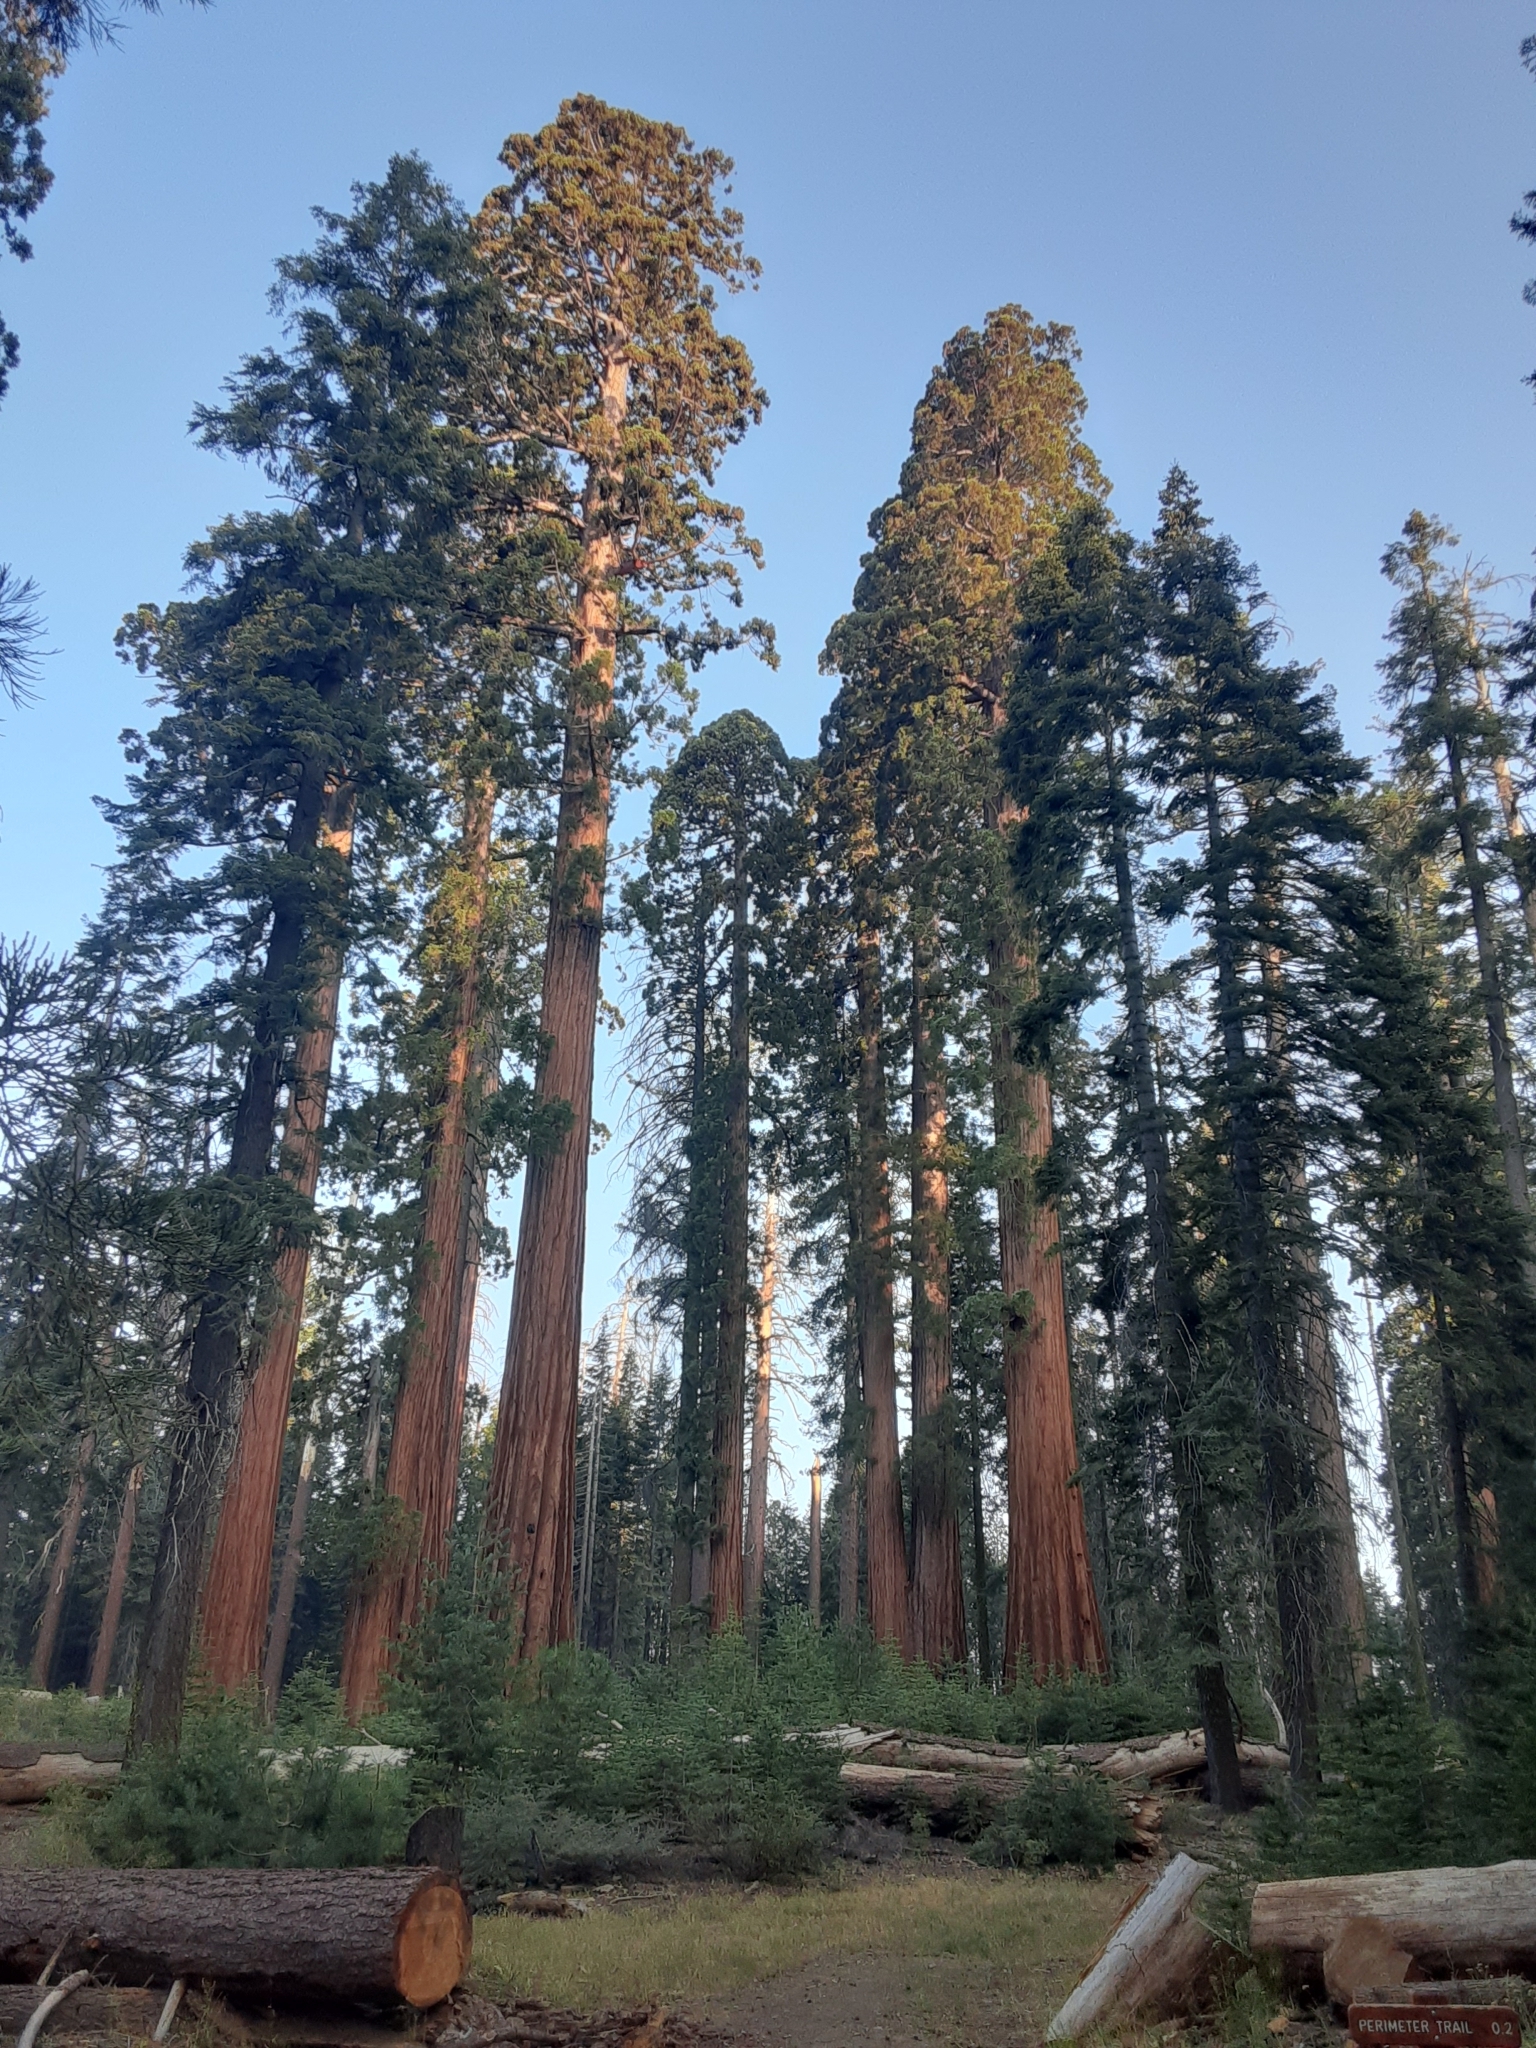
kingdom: Plantae
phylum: Tracheophyta
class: Pinopsida
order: Pinales
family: Cupressaceae
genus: Sequoiadendron
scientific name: Sequoiadendron giganteum
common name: Wellingtonia
